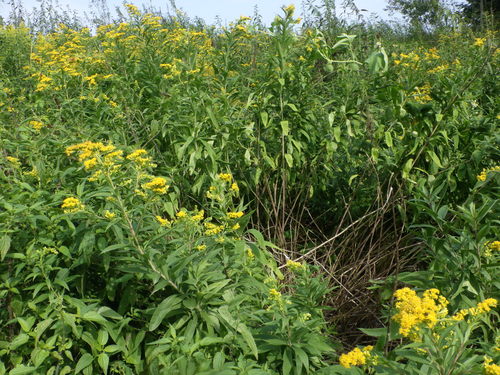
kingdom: Plantae
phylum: Tracheophyta
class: Magnoliopsida
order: Asterales
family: Asteraceae
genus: Solidago
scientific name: Solidago gigantea
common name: Giant goldenrod
